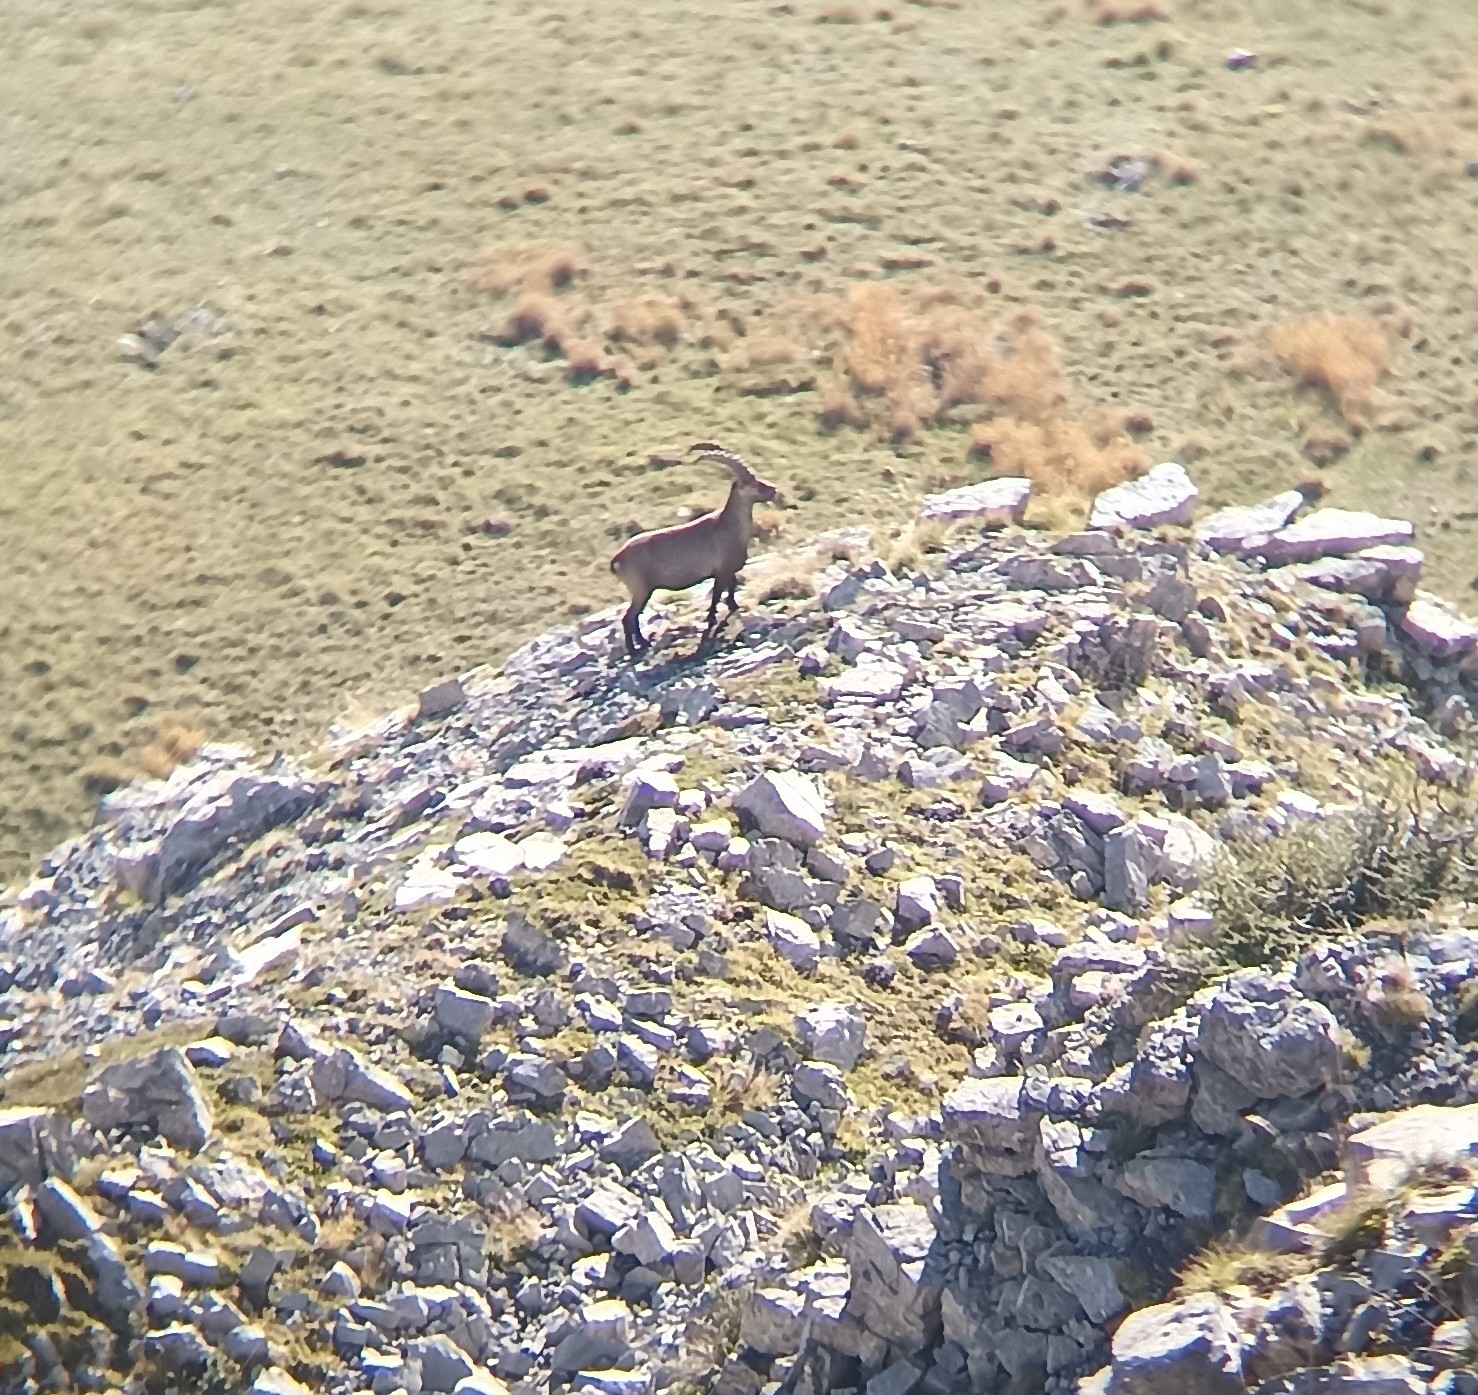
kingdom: Animalia
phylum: Chordata
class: Mammalia
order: Artiodactyla
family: Bovidae
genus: Capra
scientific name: Capra ibex
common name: Alpine ibex
